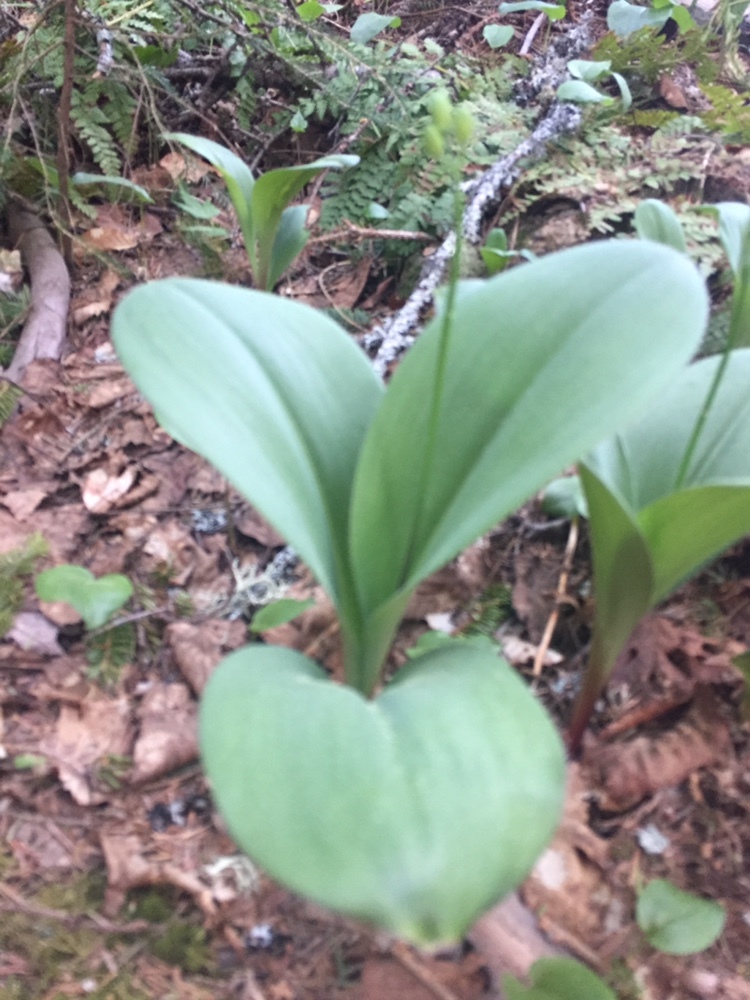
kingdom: Plantae
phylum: Tracheophyta
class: Liliopsida
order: Liliales
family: Liliaceae
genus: Clintonia
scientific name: Clintonia borealis
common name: Yellow clintonia
